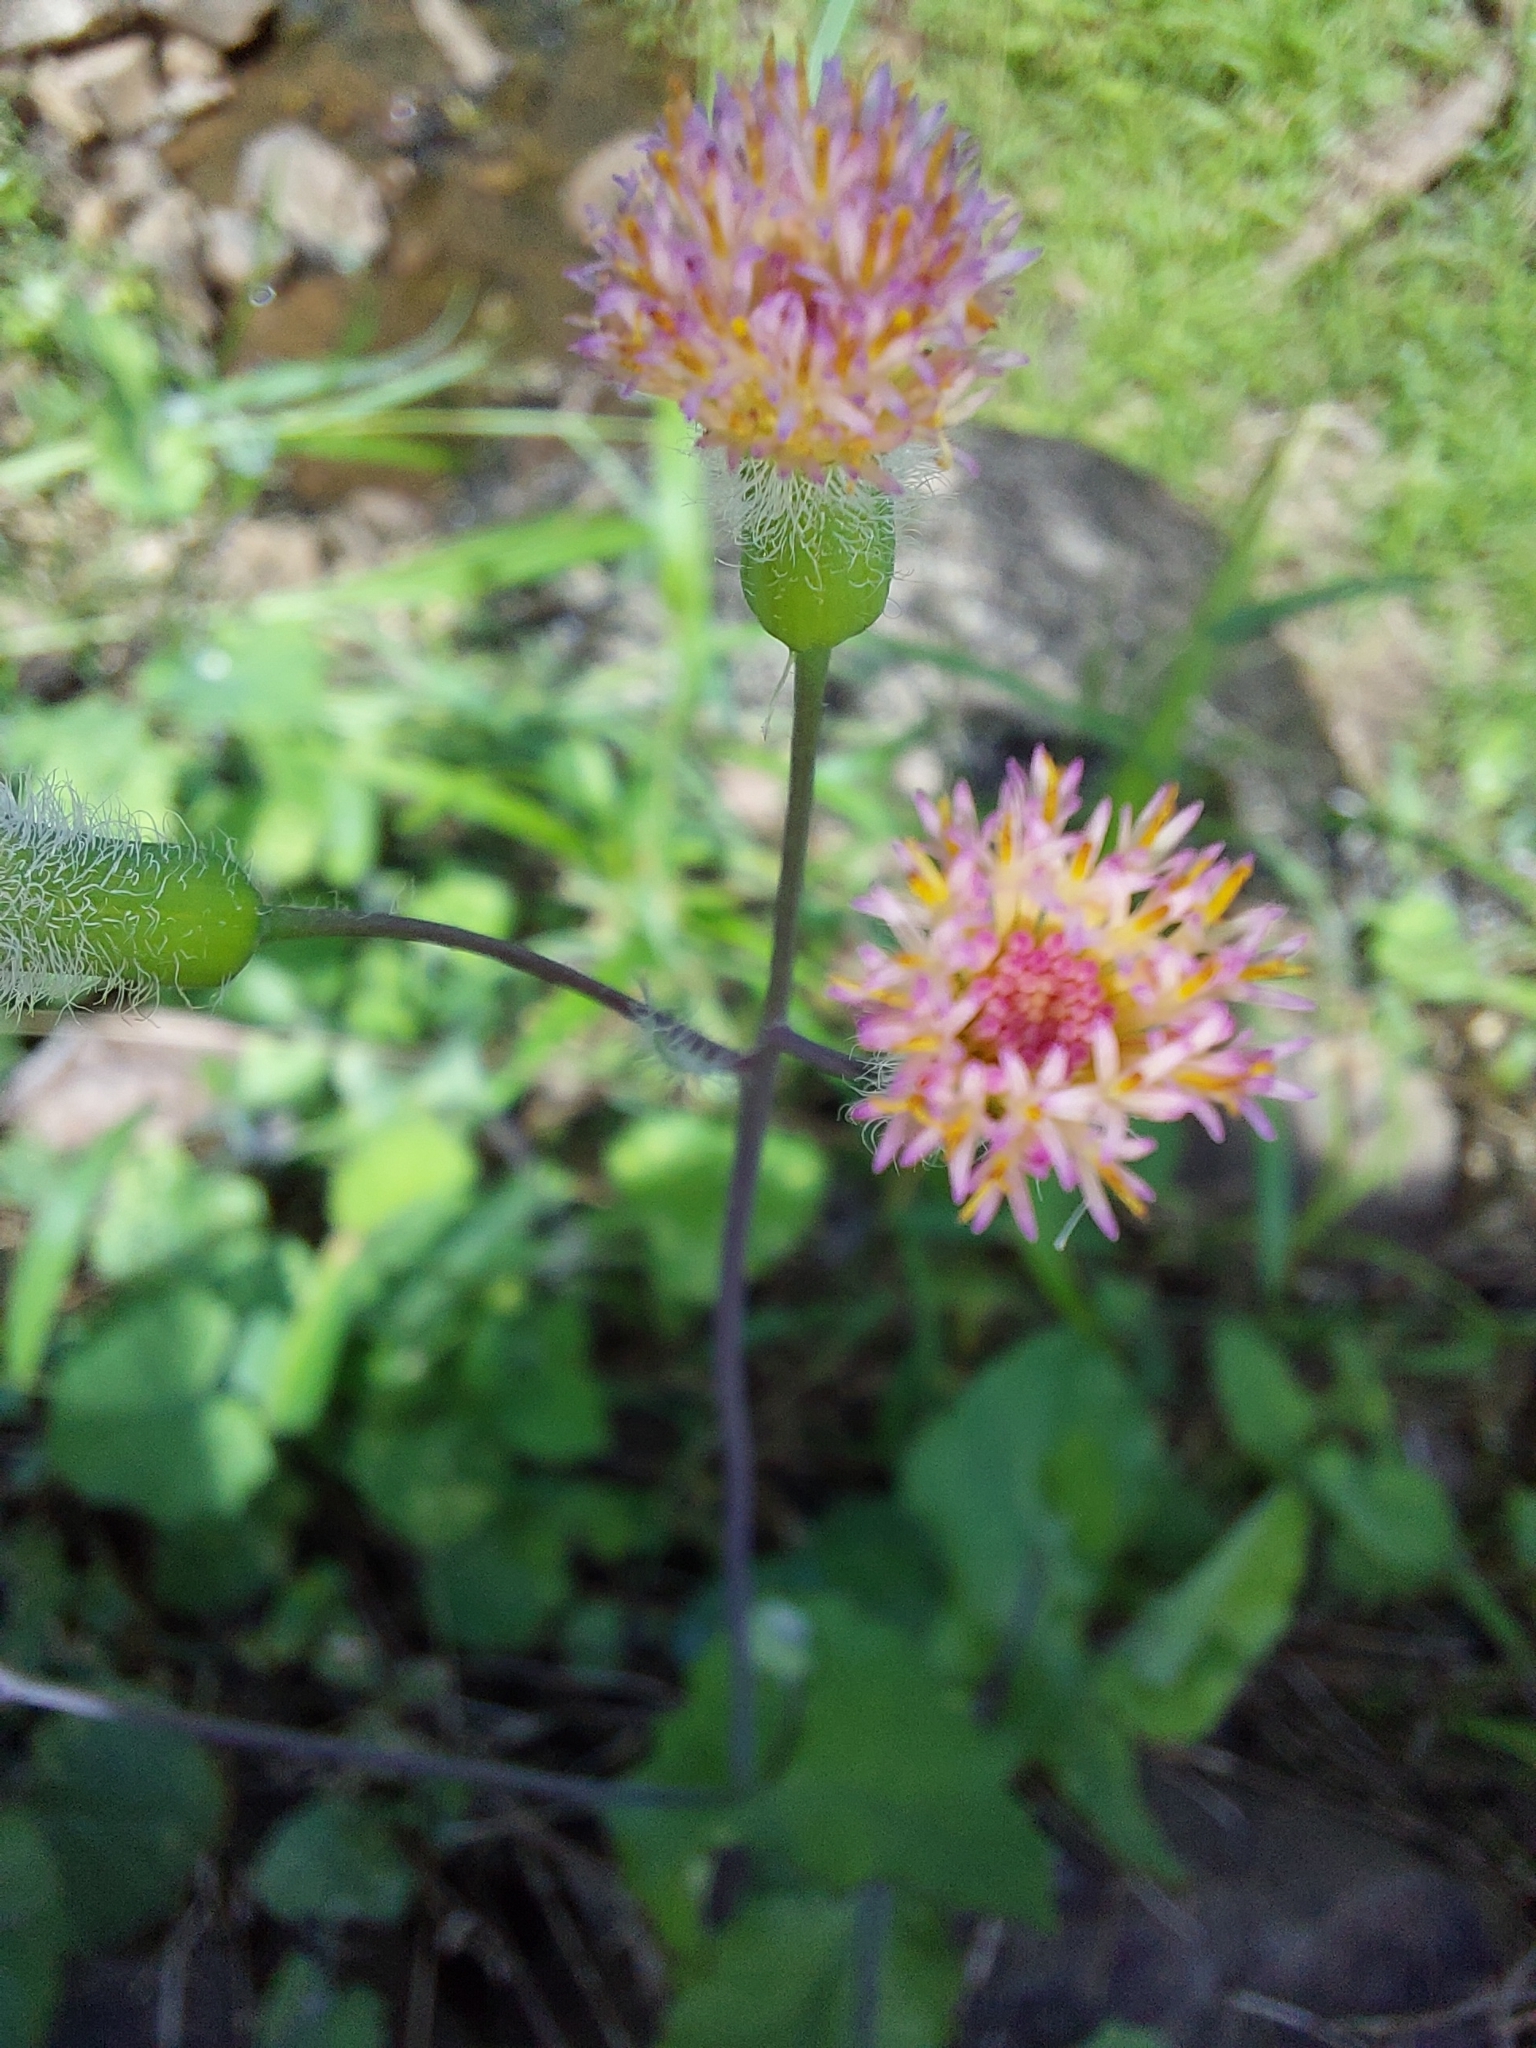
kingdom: Plantae
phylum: Tracheophyta
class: Magnoliopsida
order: Asterales
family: Asteraceae
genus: Emilia
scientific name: Emilia praetermissa
